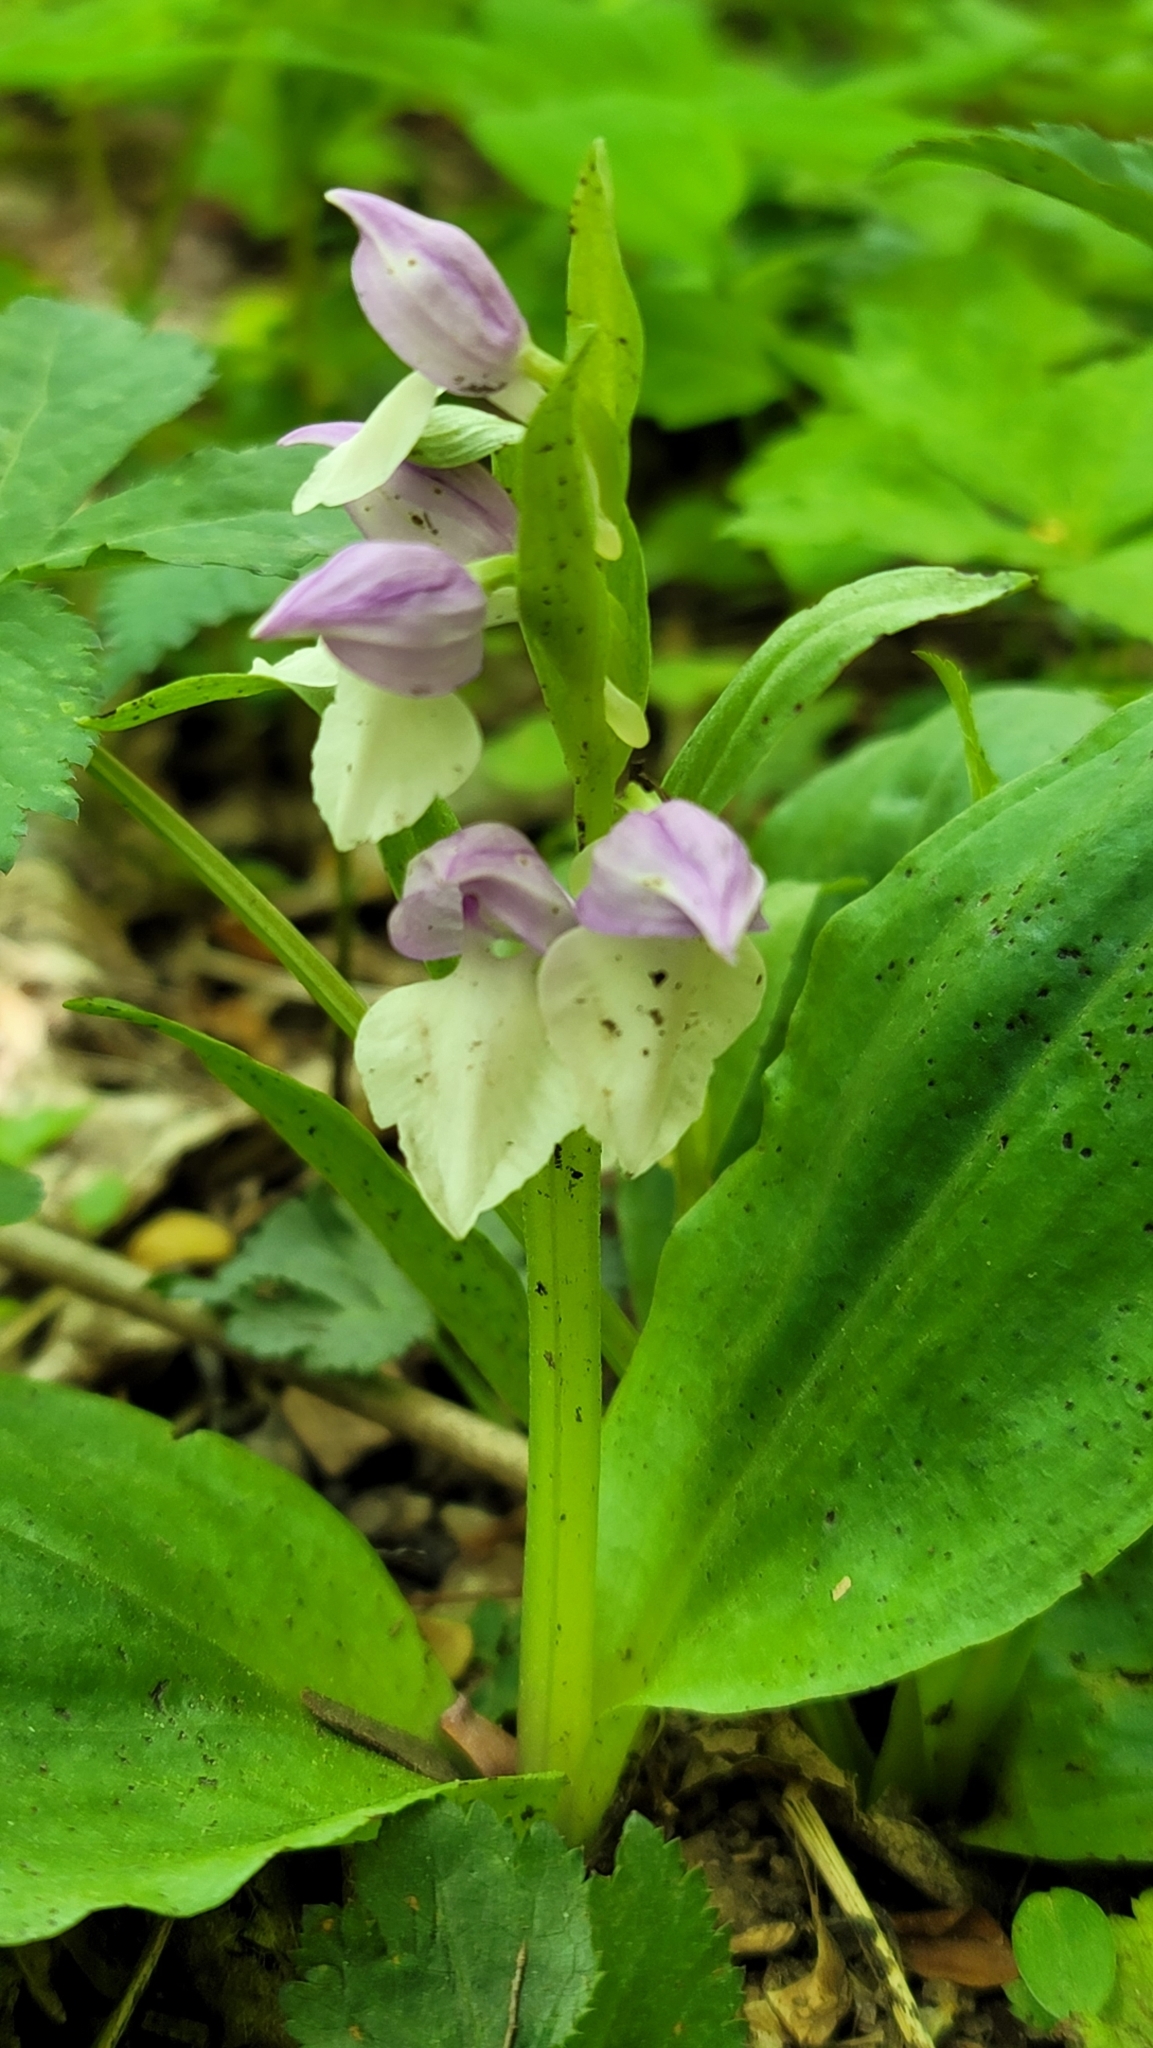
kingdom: Plantae
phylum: Tracheophyta
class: Liliopsida
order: Asparagales
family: Orchidaceae
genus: Galearis
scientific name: Galearis spectabilis
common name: Purple-hooded orchis
